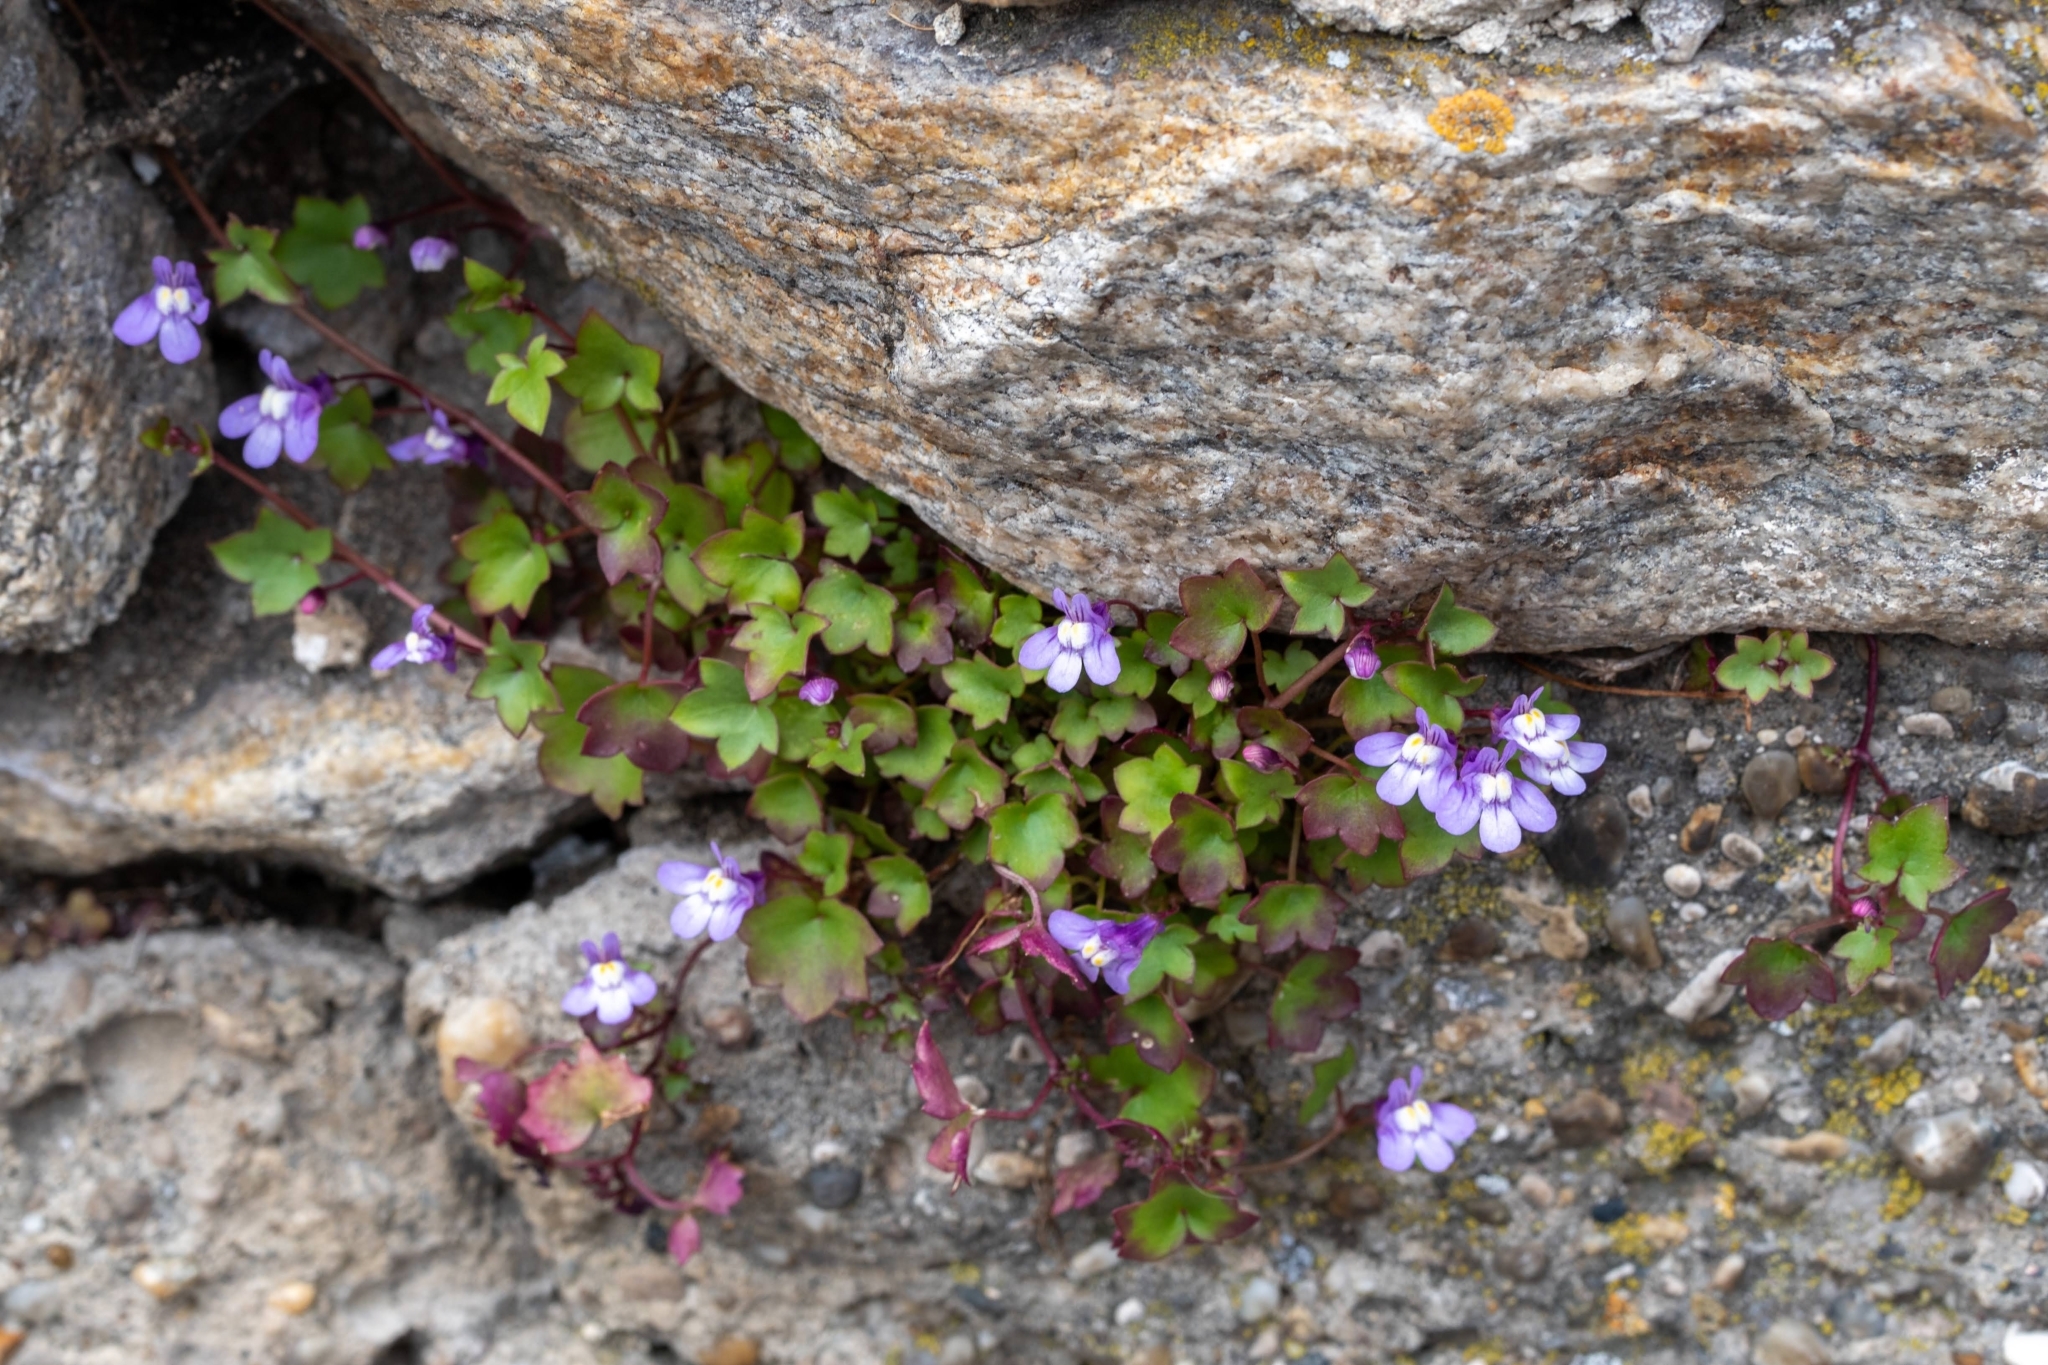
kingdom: Plantae
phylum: Tracheophyta
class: Magnoliopsida
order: Lamiales
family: Plantaginaceae
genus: Cymbalaria
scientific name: Cymbalaria muralis
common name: Ivy-leaved toadflax
